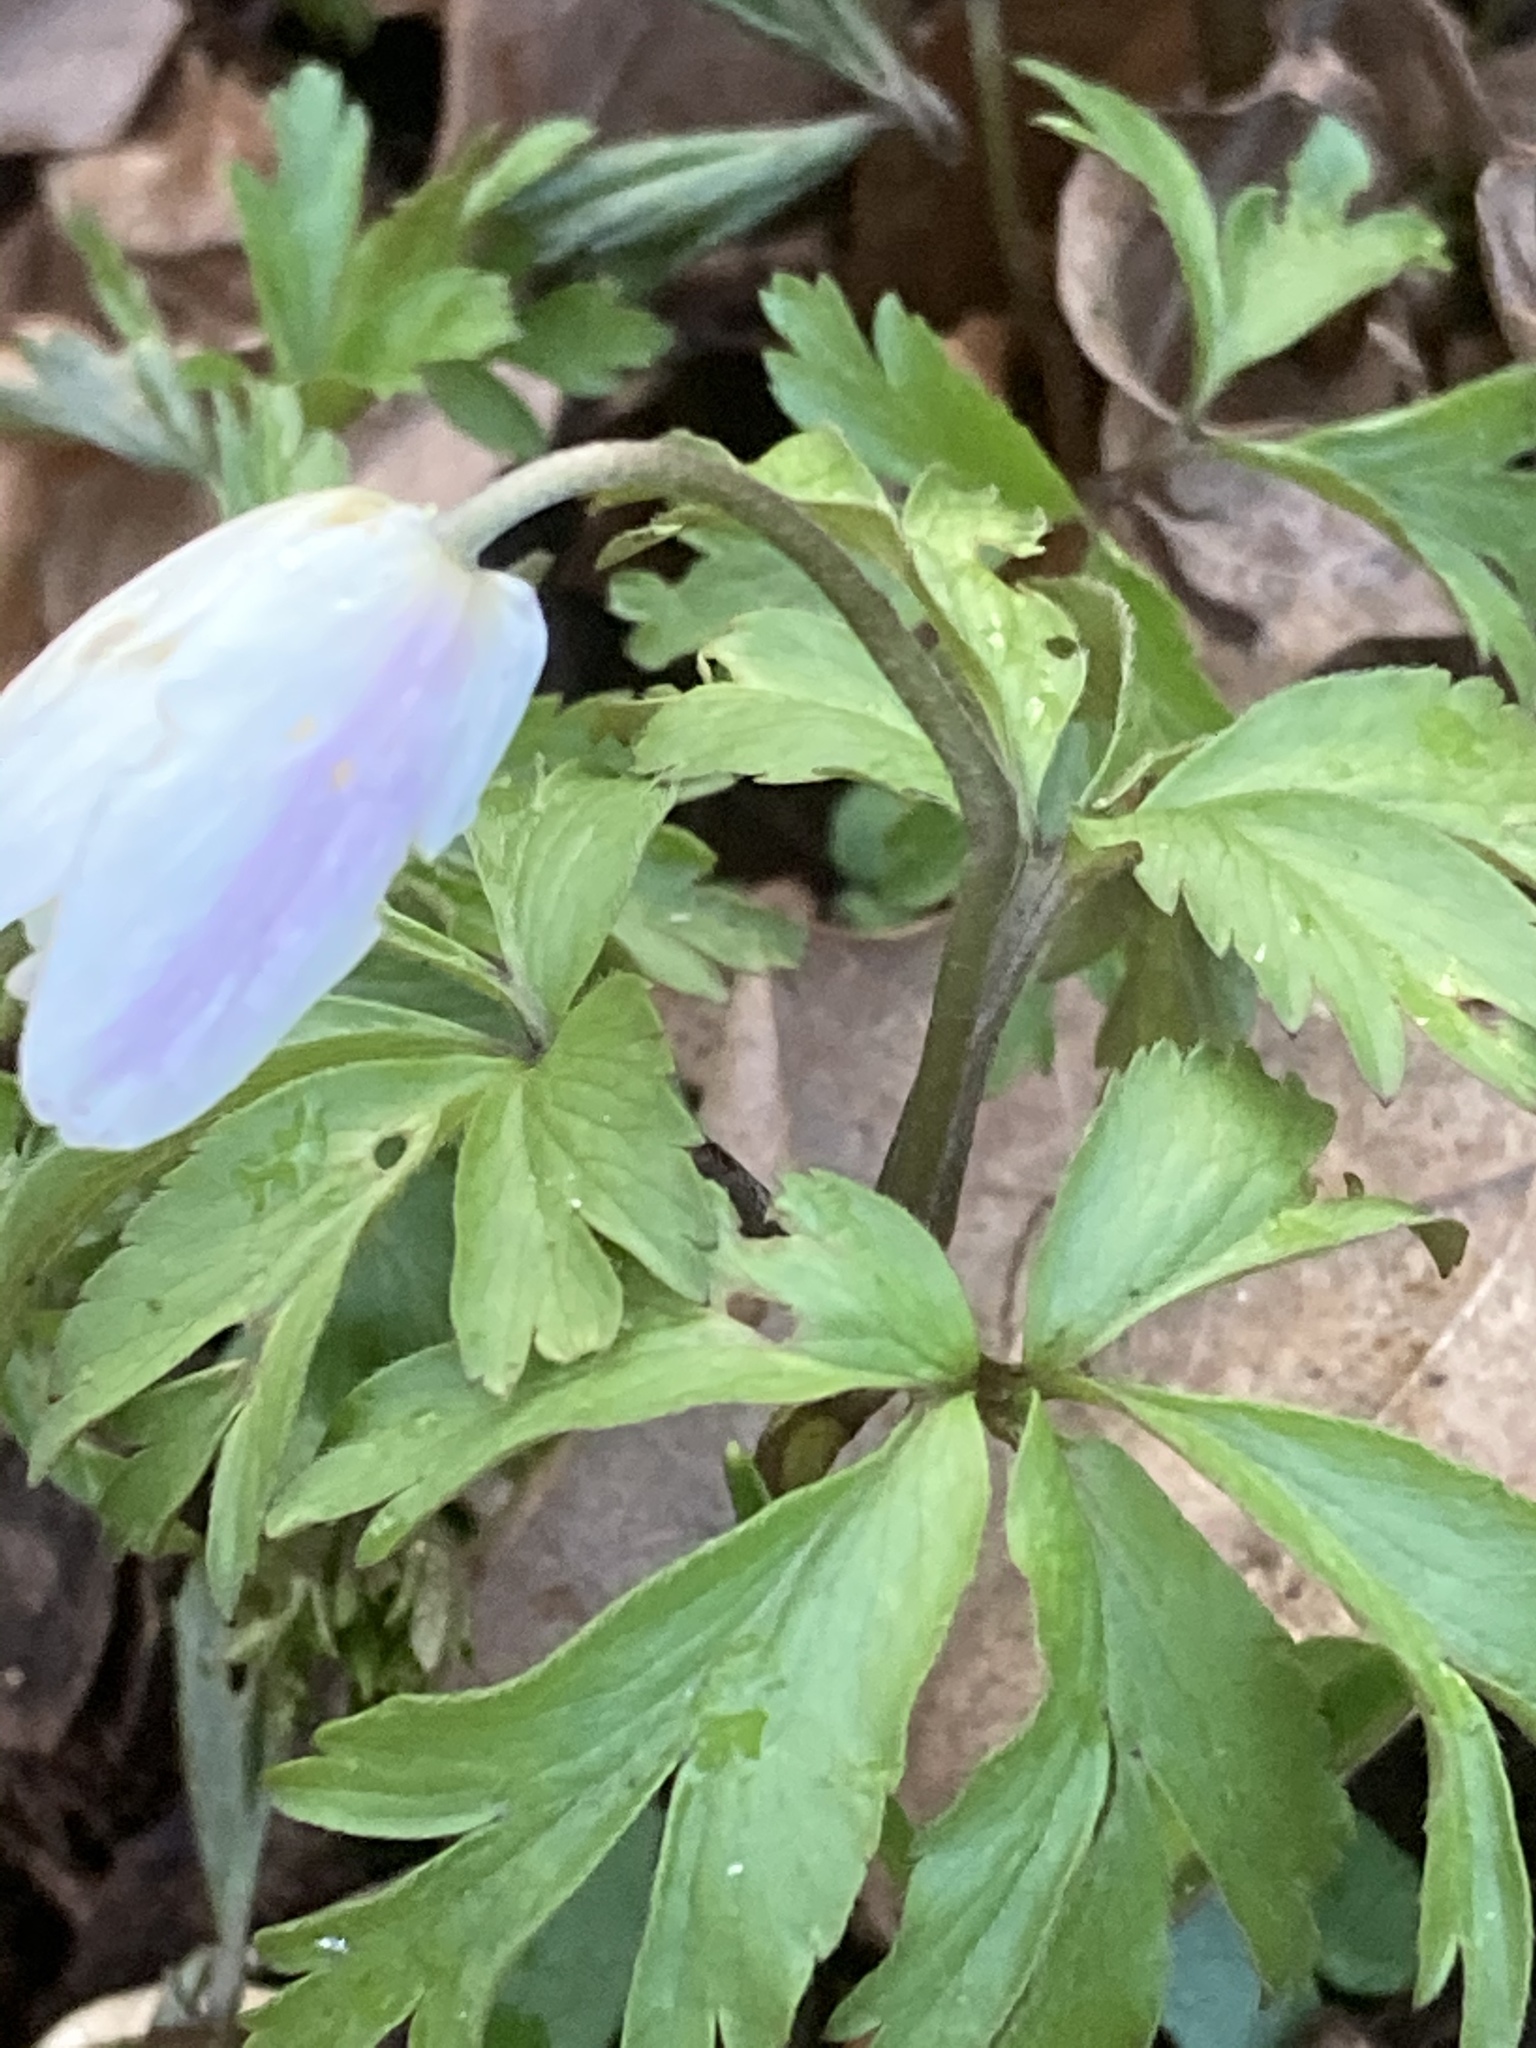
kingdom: Plantae
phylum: Tracheophyta
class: Magnoliopsida
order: Ranunculales
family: Ranunculaceae
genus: Anemone
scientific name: Anemone nemorosa
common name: Wood anemone
